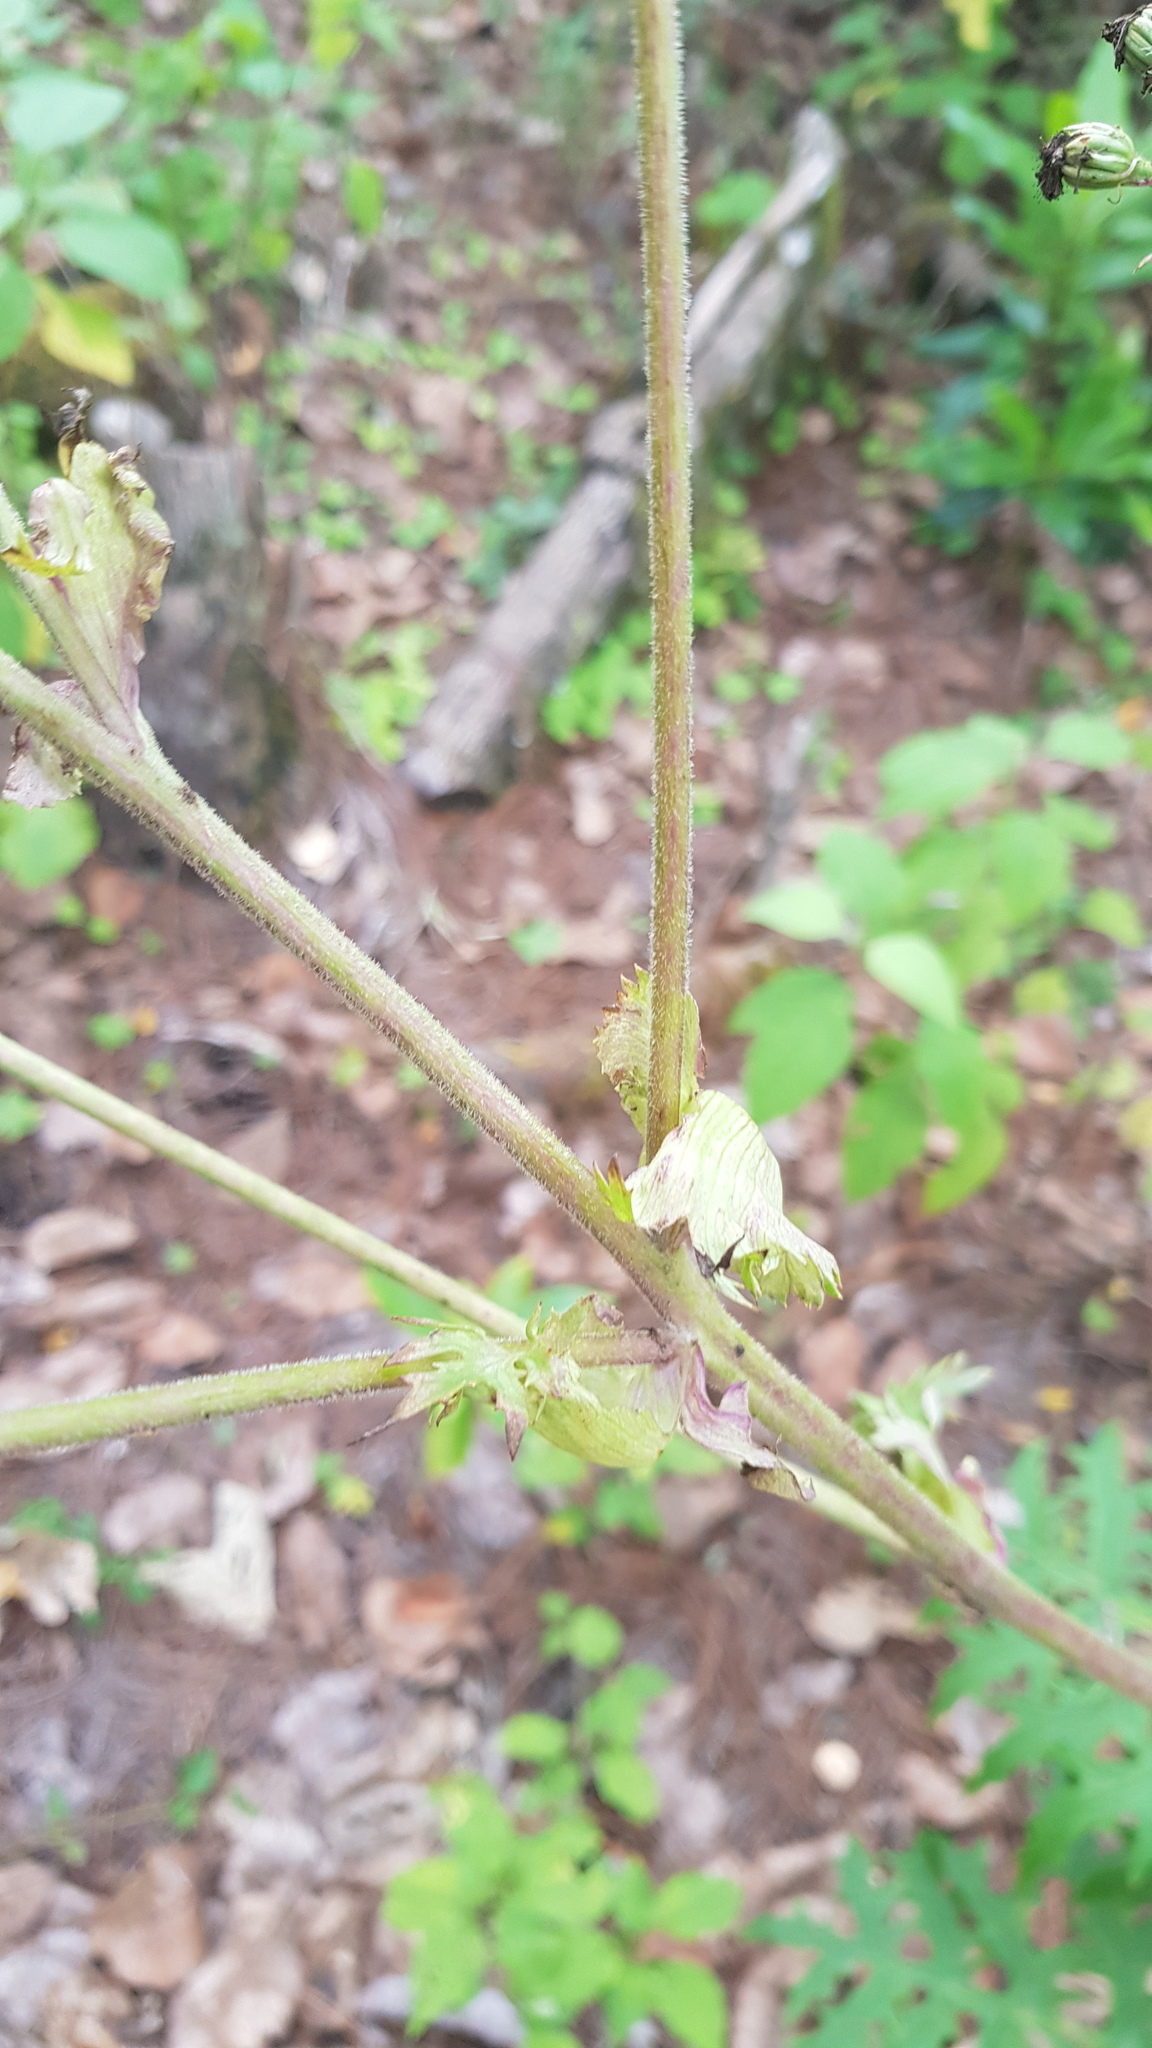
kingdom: Plantae
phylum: Tracheophyta
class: Magnoliopsida
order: Asterales
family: Asteraceae
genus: Psacalium
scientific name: Psacalium cirsiifolium
